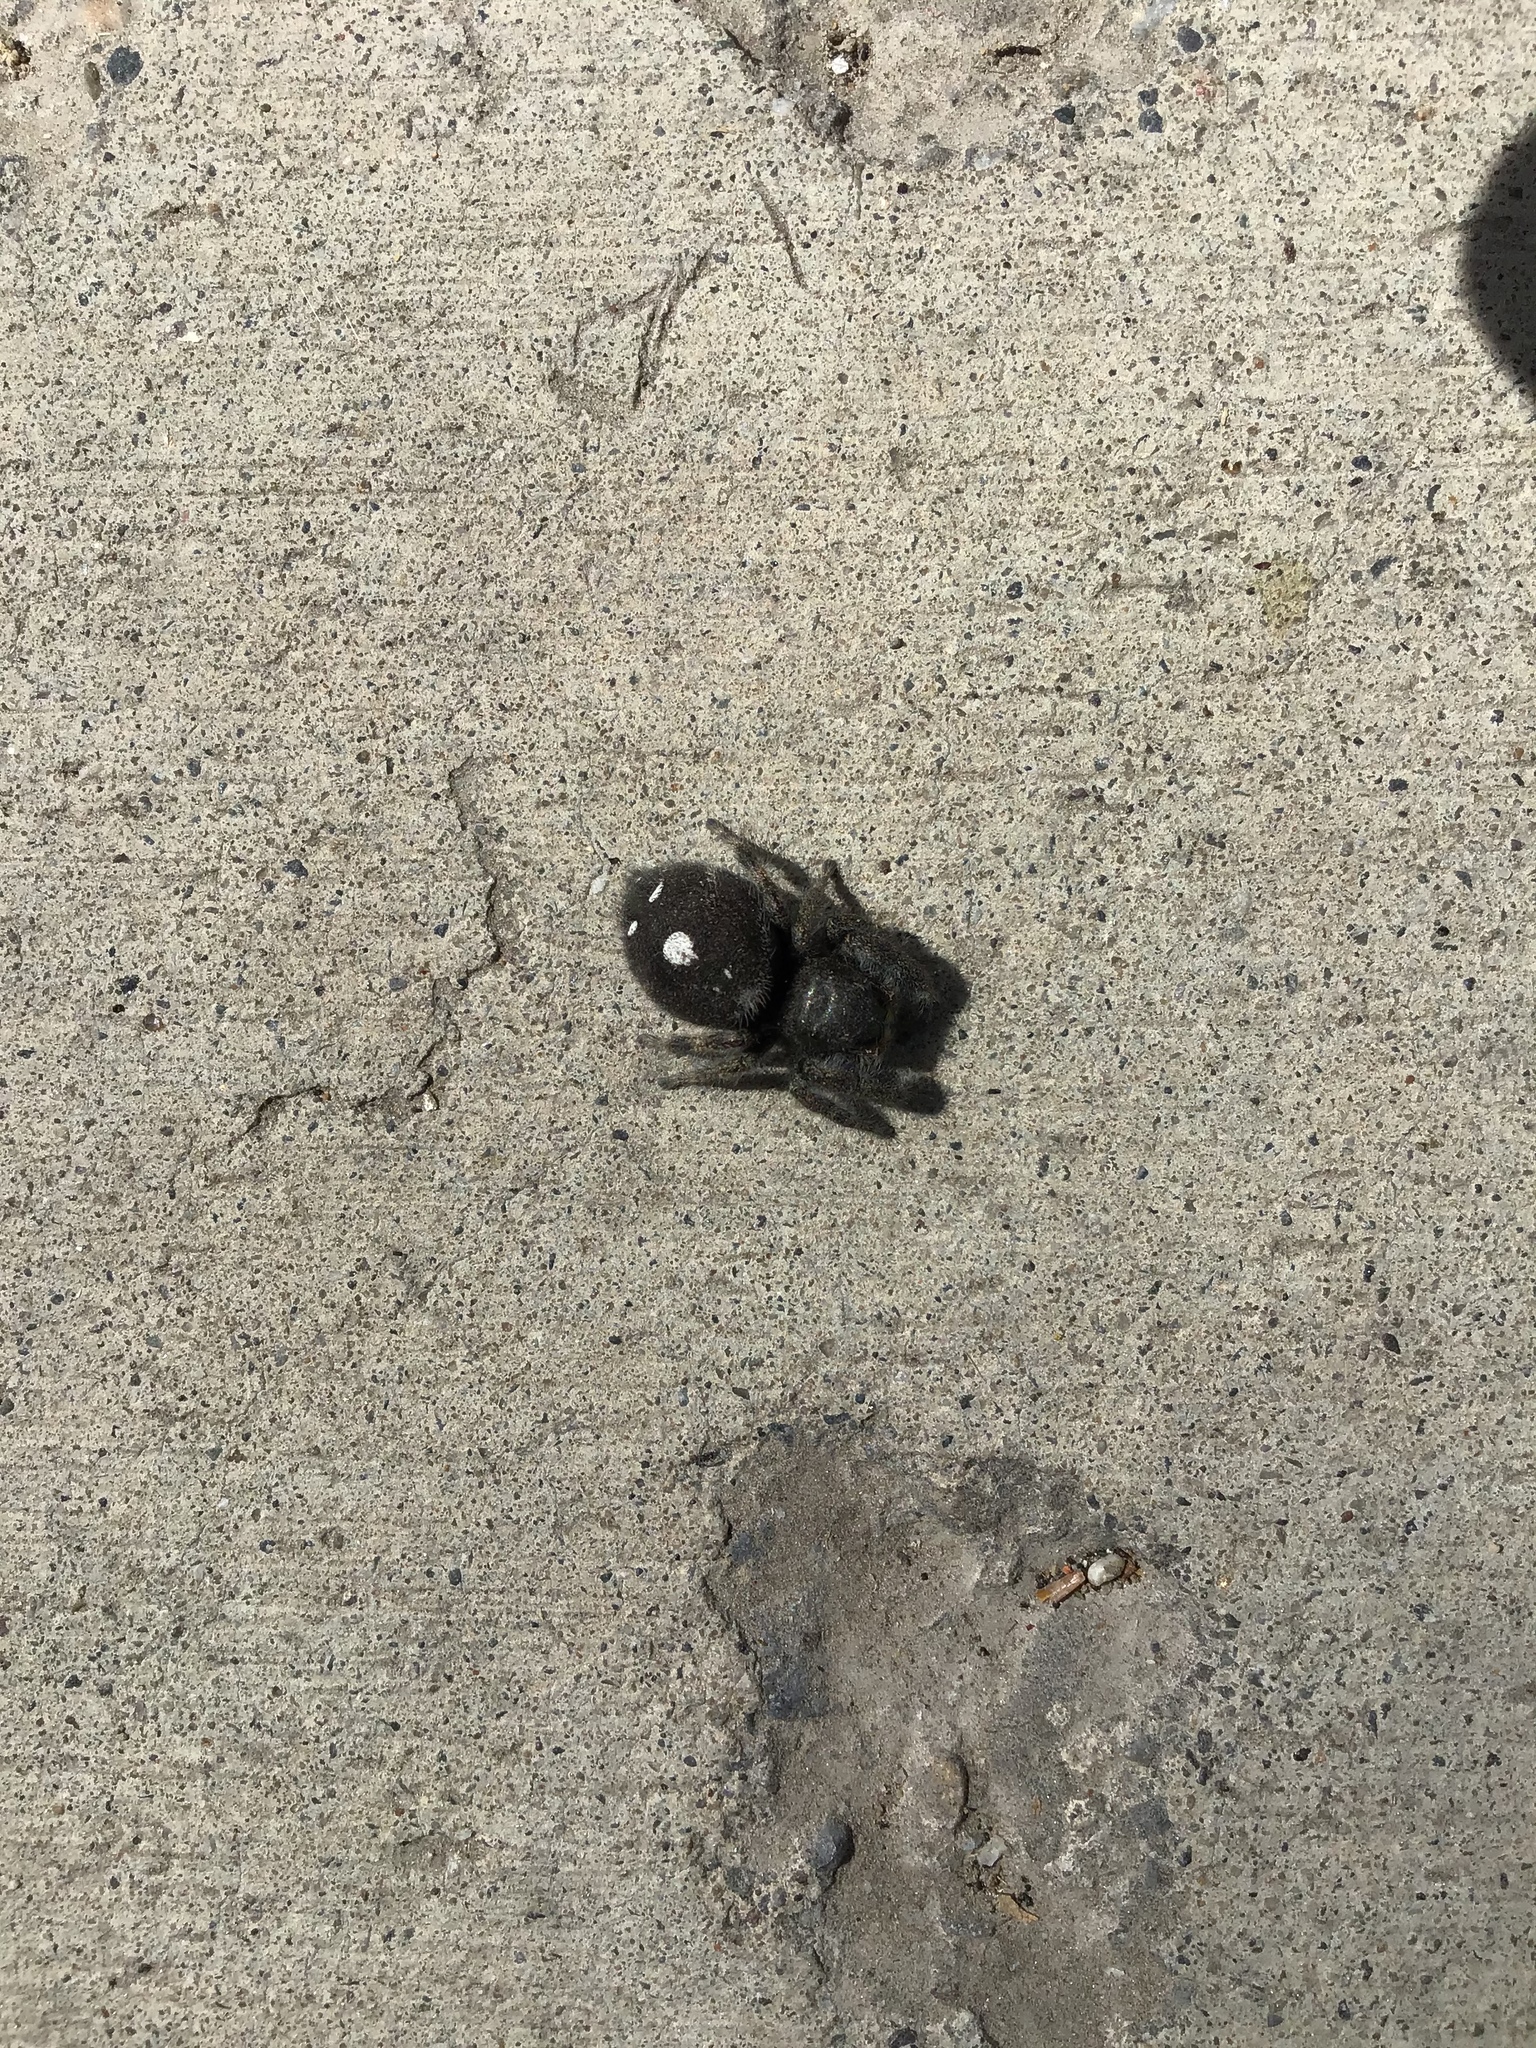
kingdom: Animalia
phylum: Arthropoda
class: Arachnida
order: Araneae
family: Salticidae
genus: Phidippus
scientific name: Phidippus audax
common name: Bold jumper
